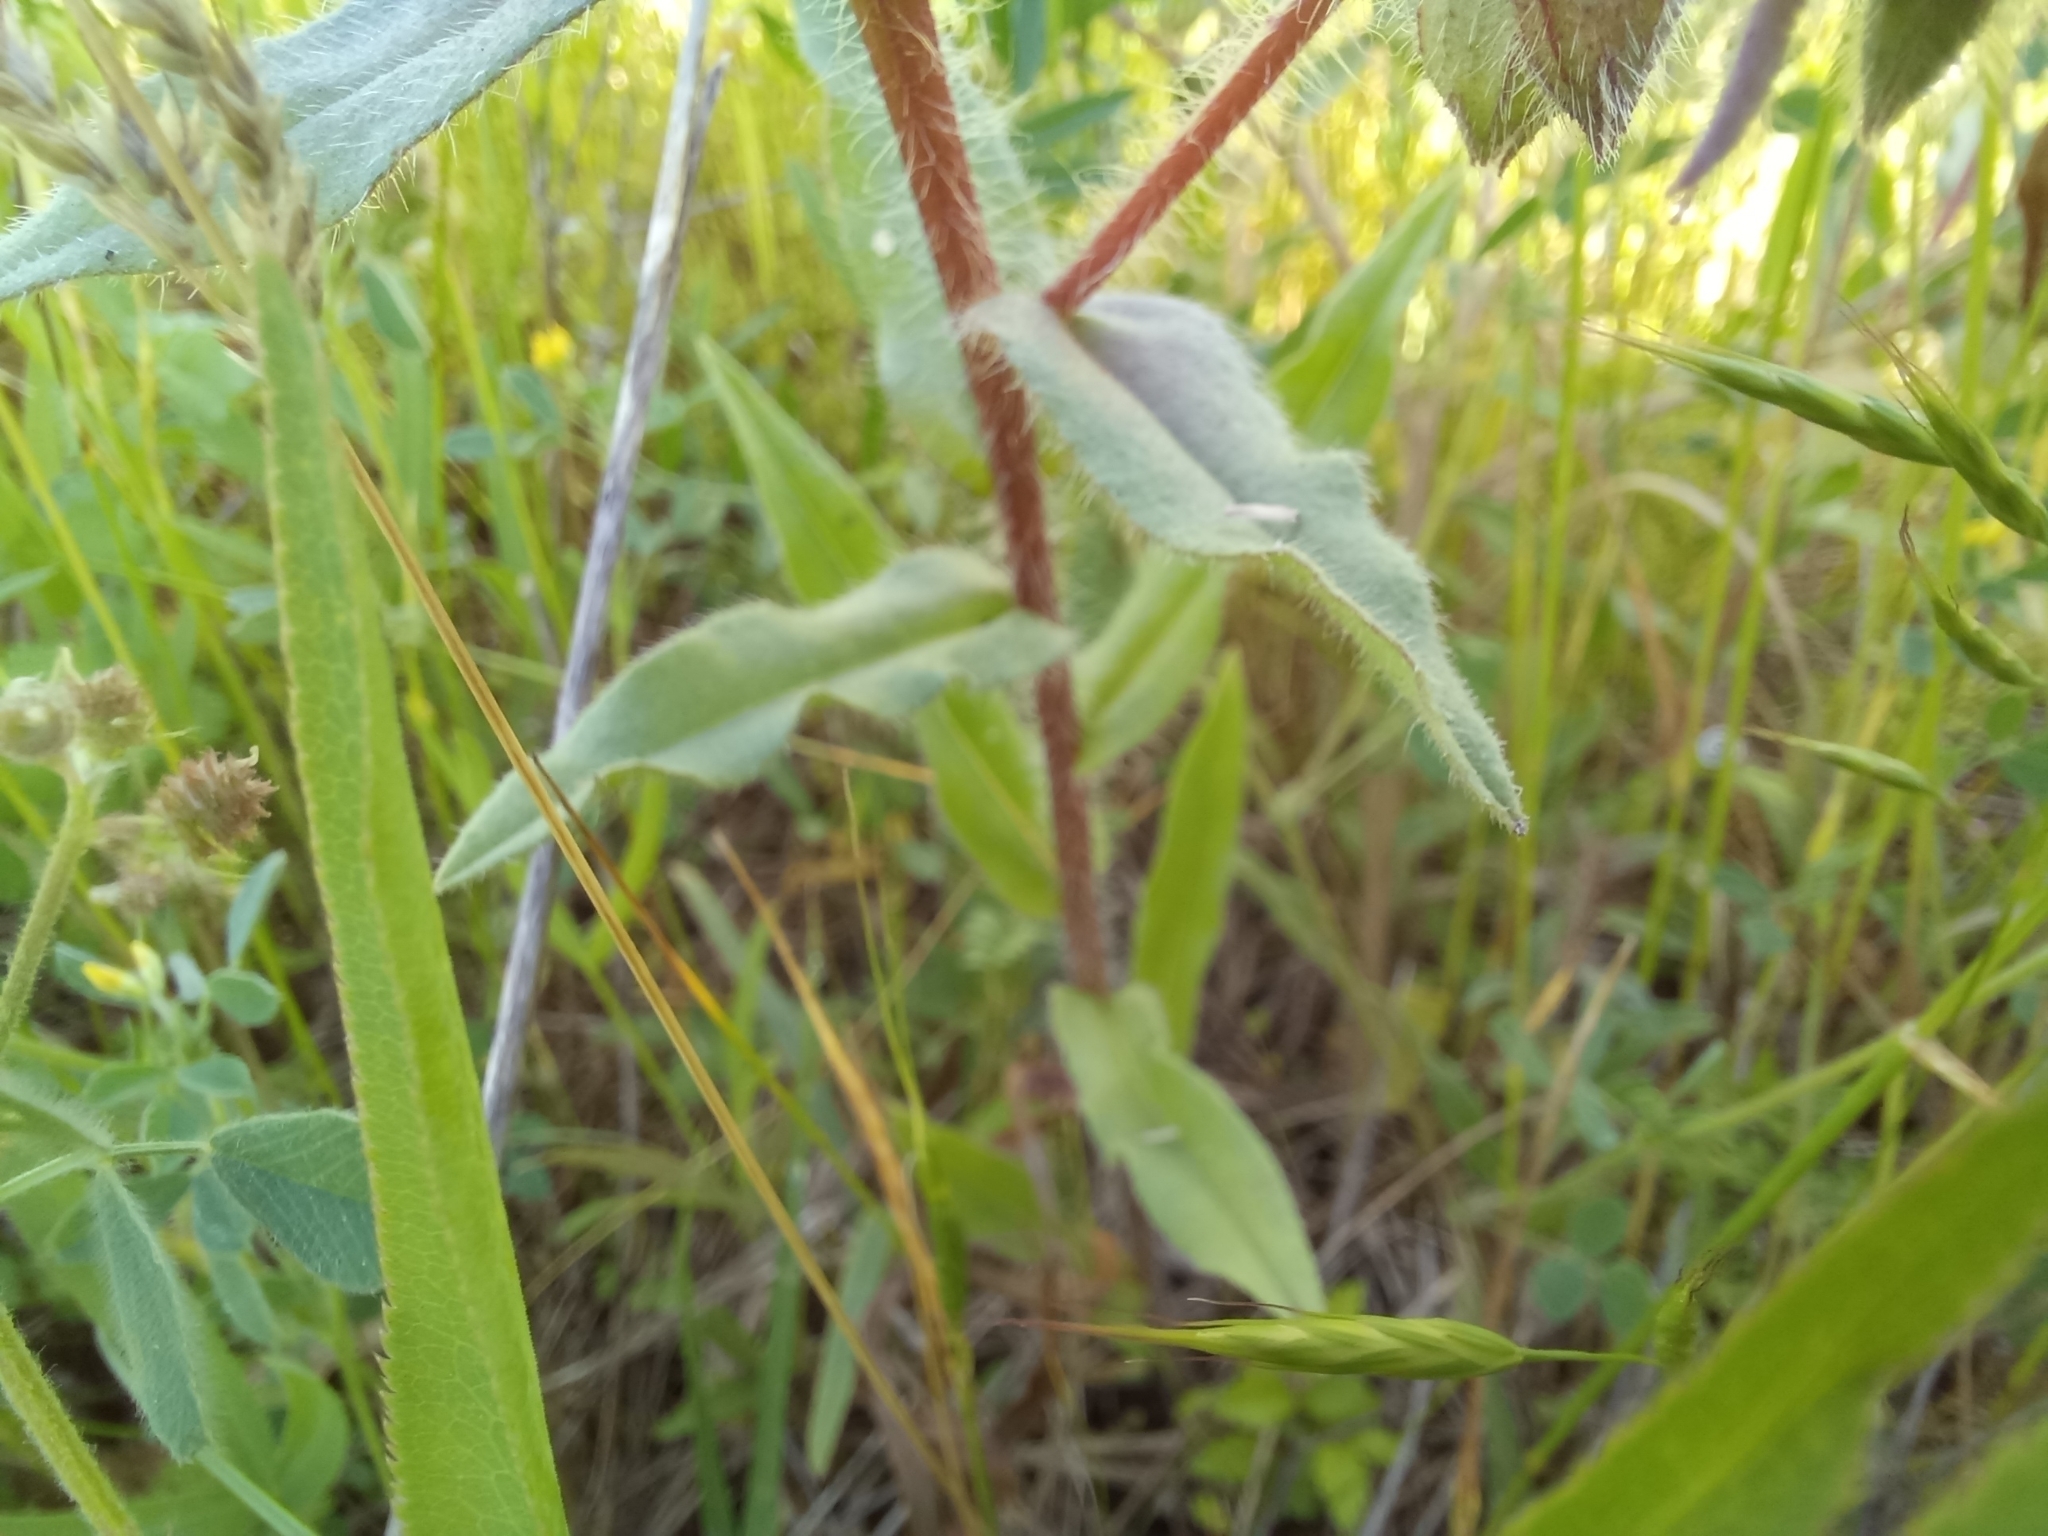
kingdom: Plantae
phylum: Tracheophyta
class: Magnoliopsida
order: Boraginales
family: Boraginaceae
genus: Nonea
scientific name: Nonea pulla
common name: Brown nonea
